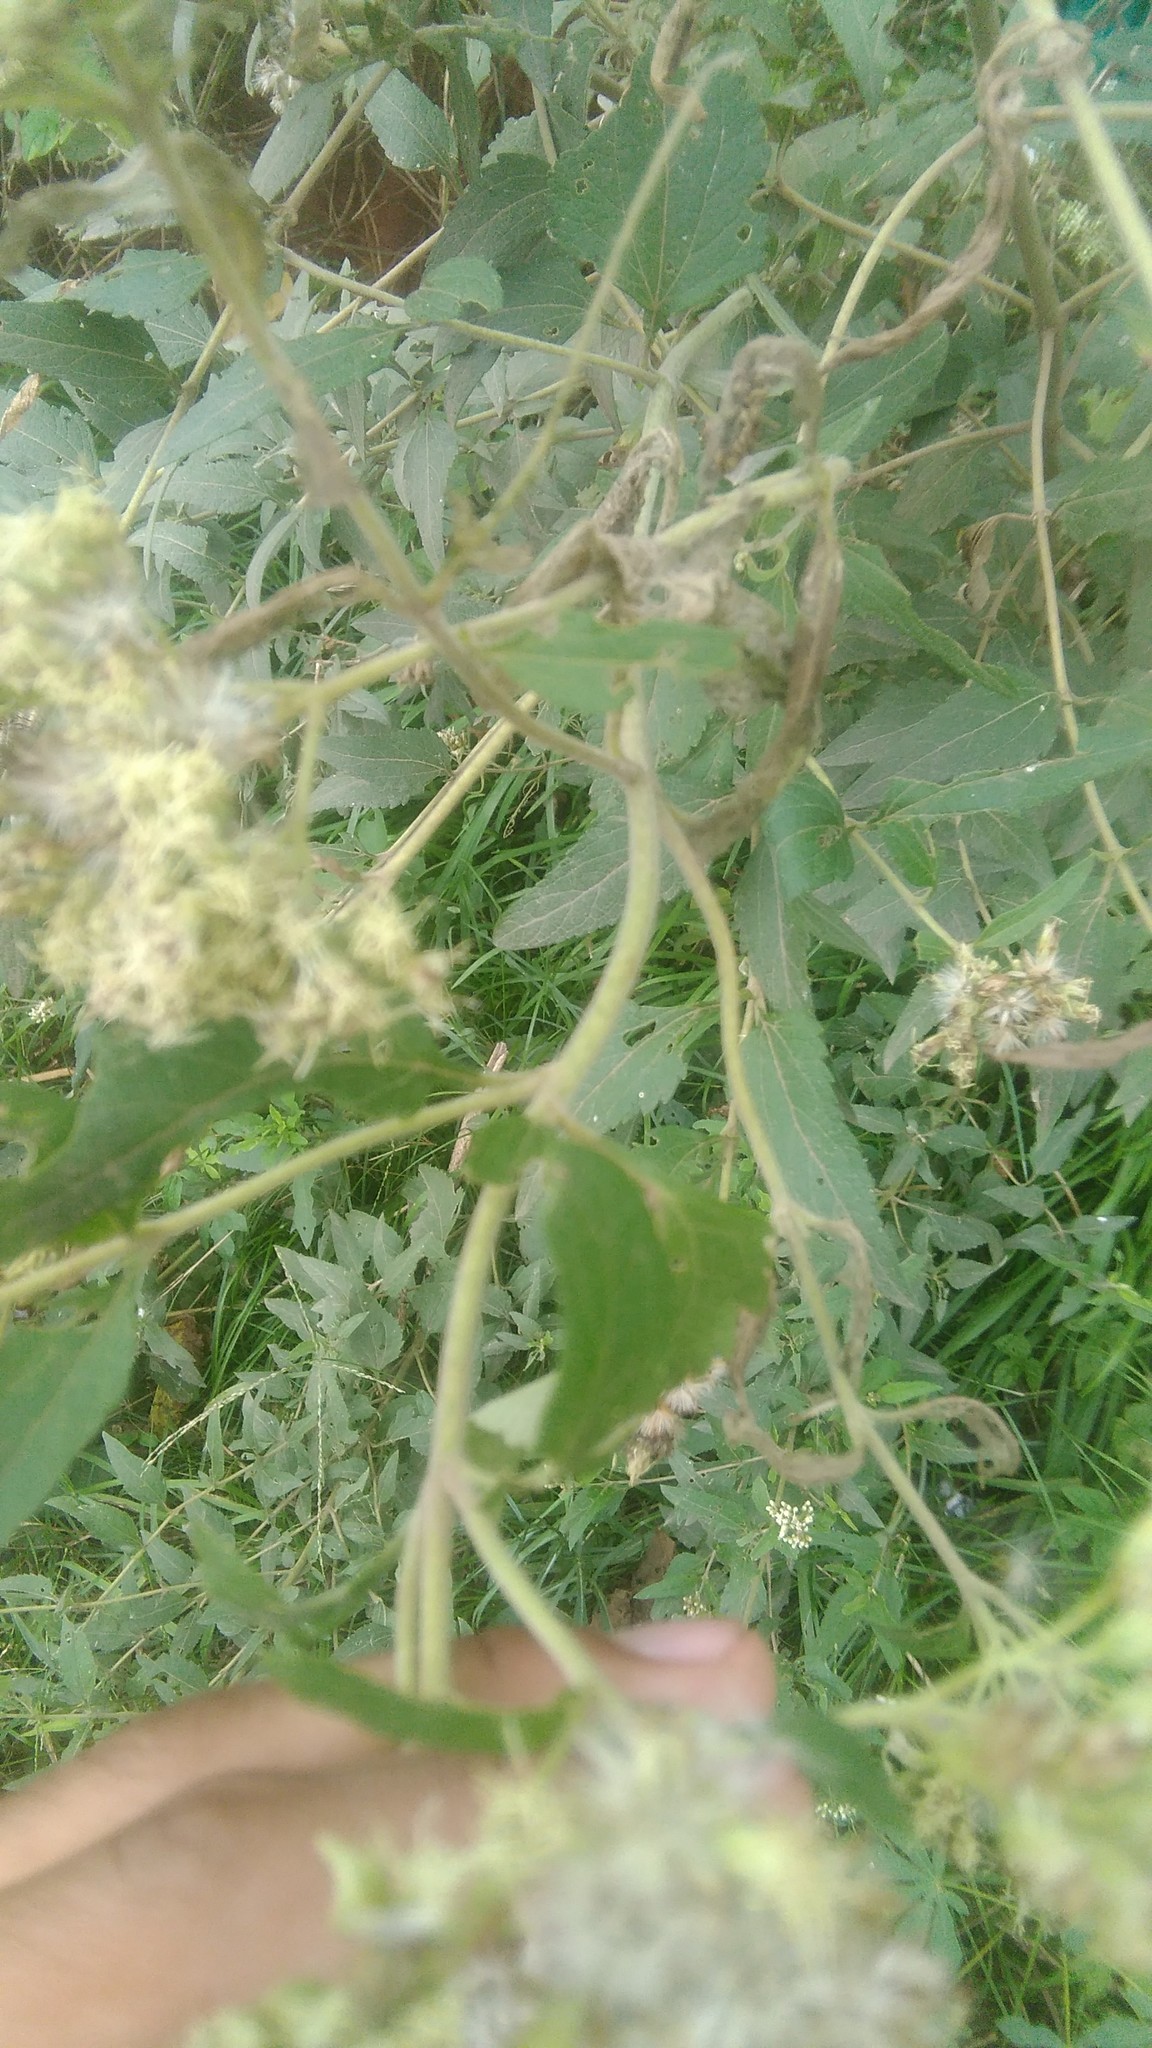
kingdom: Plantae
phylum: Tracheophyta
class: Magnoliopsida
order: Asterales
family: Asteraceae
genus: Austroeupatorium
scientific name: Austroeupatorium inulifolium
